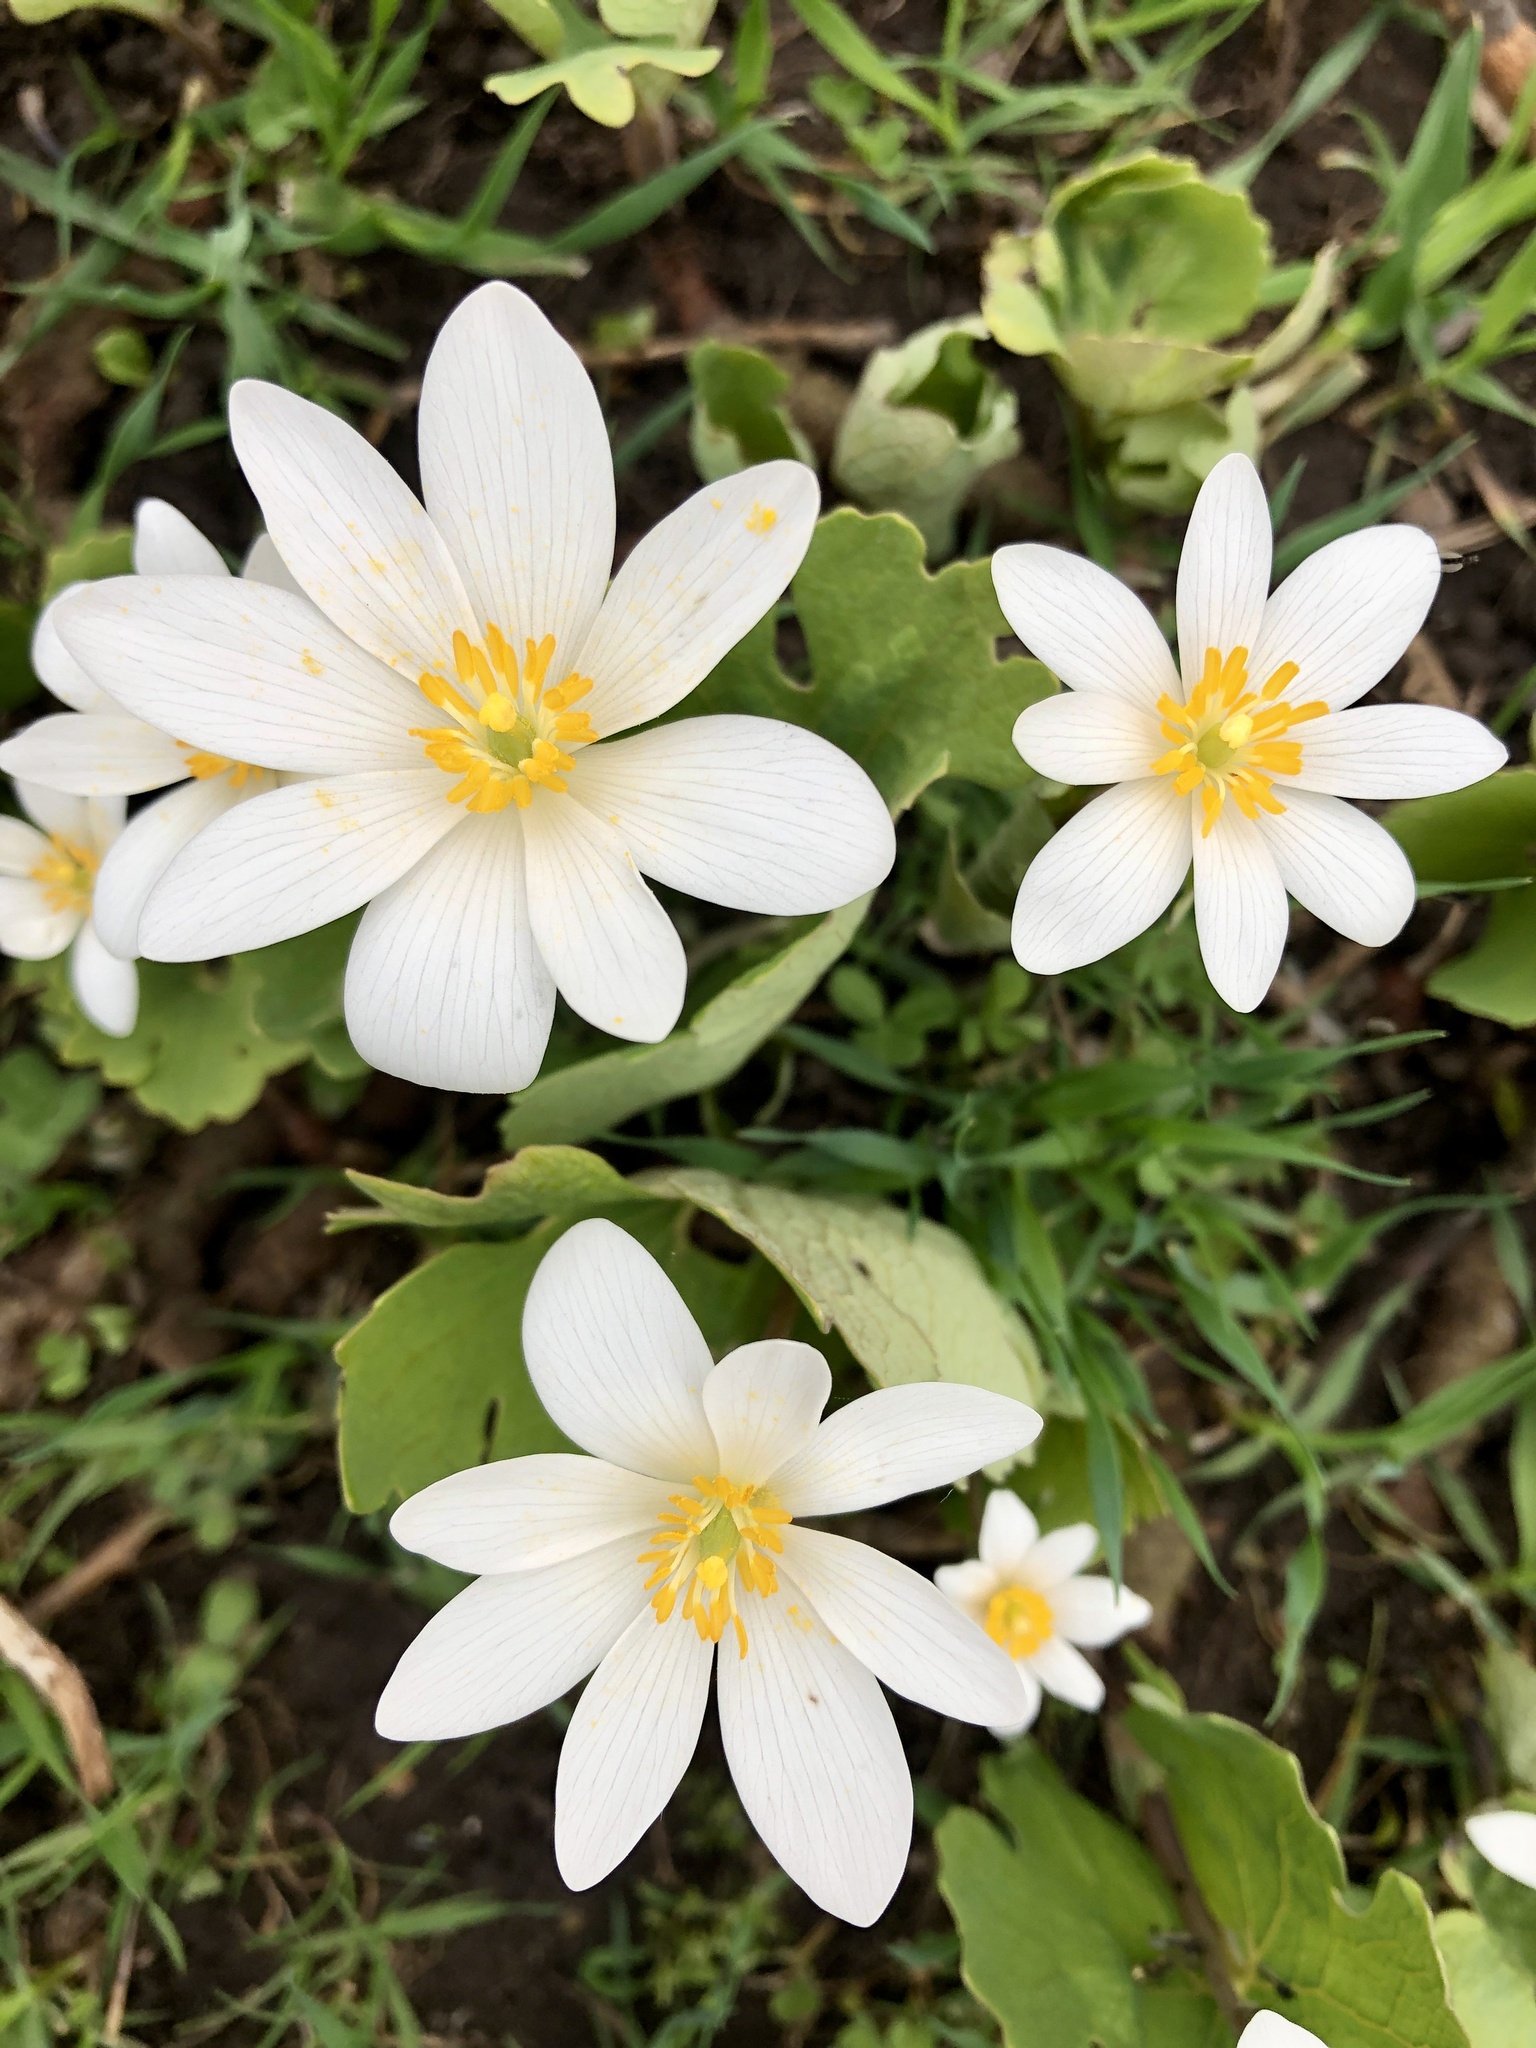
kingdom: Plantae
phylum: Tracheophyta
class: Magnoliopsida
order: Ranunculales
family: Papaveraceae
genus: Sanguinaria
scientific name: Sanguinaria canadensis
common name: Bloodroot
